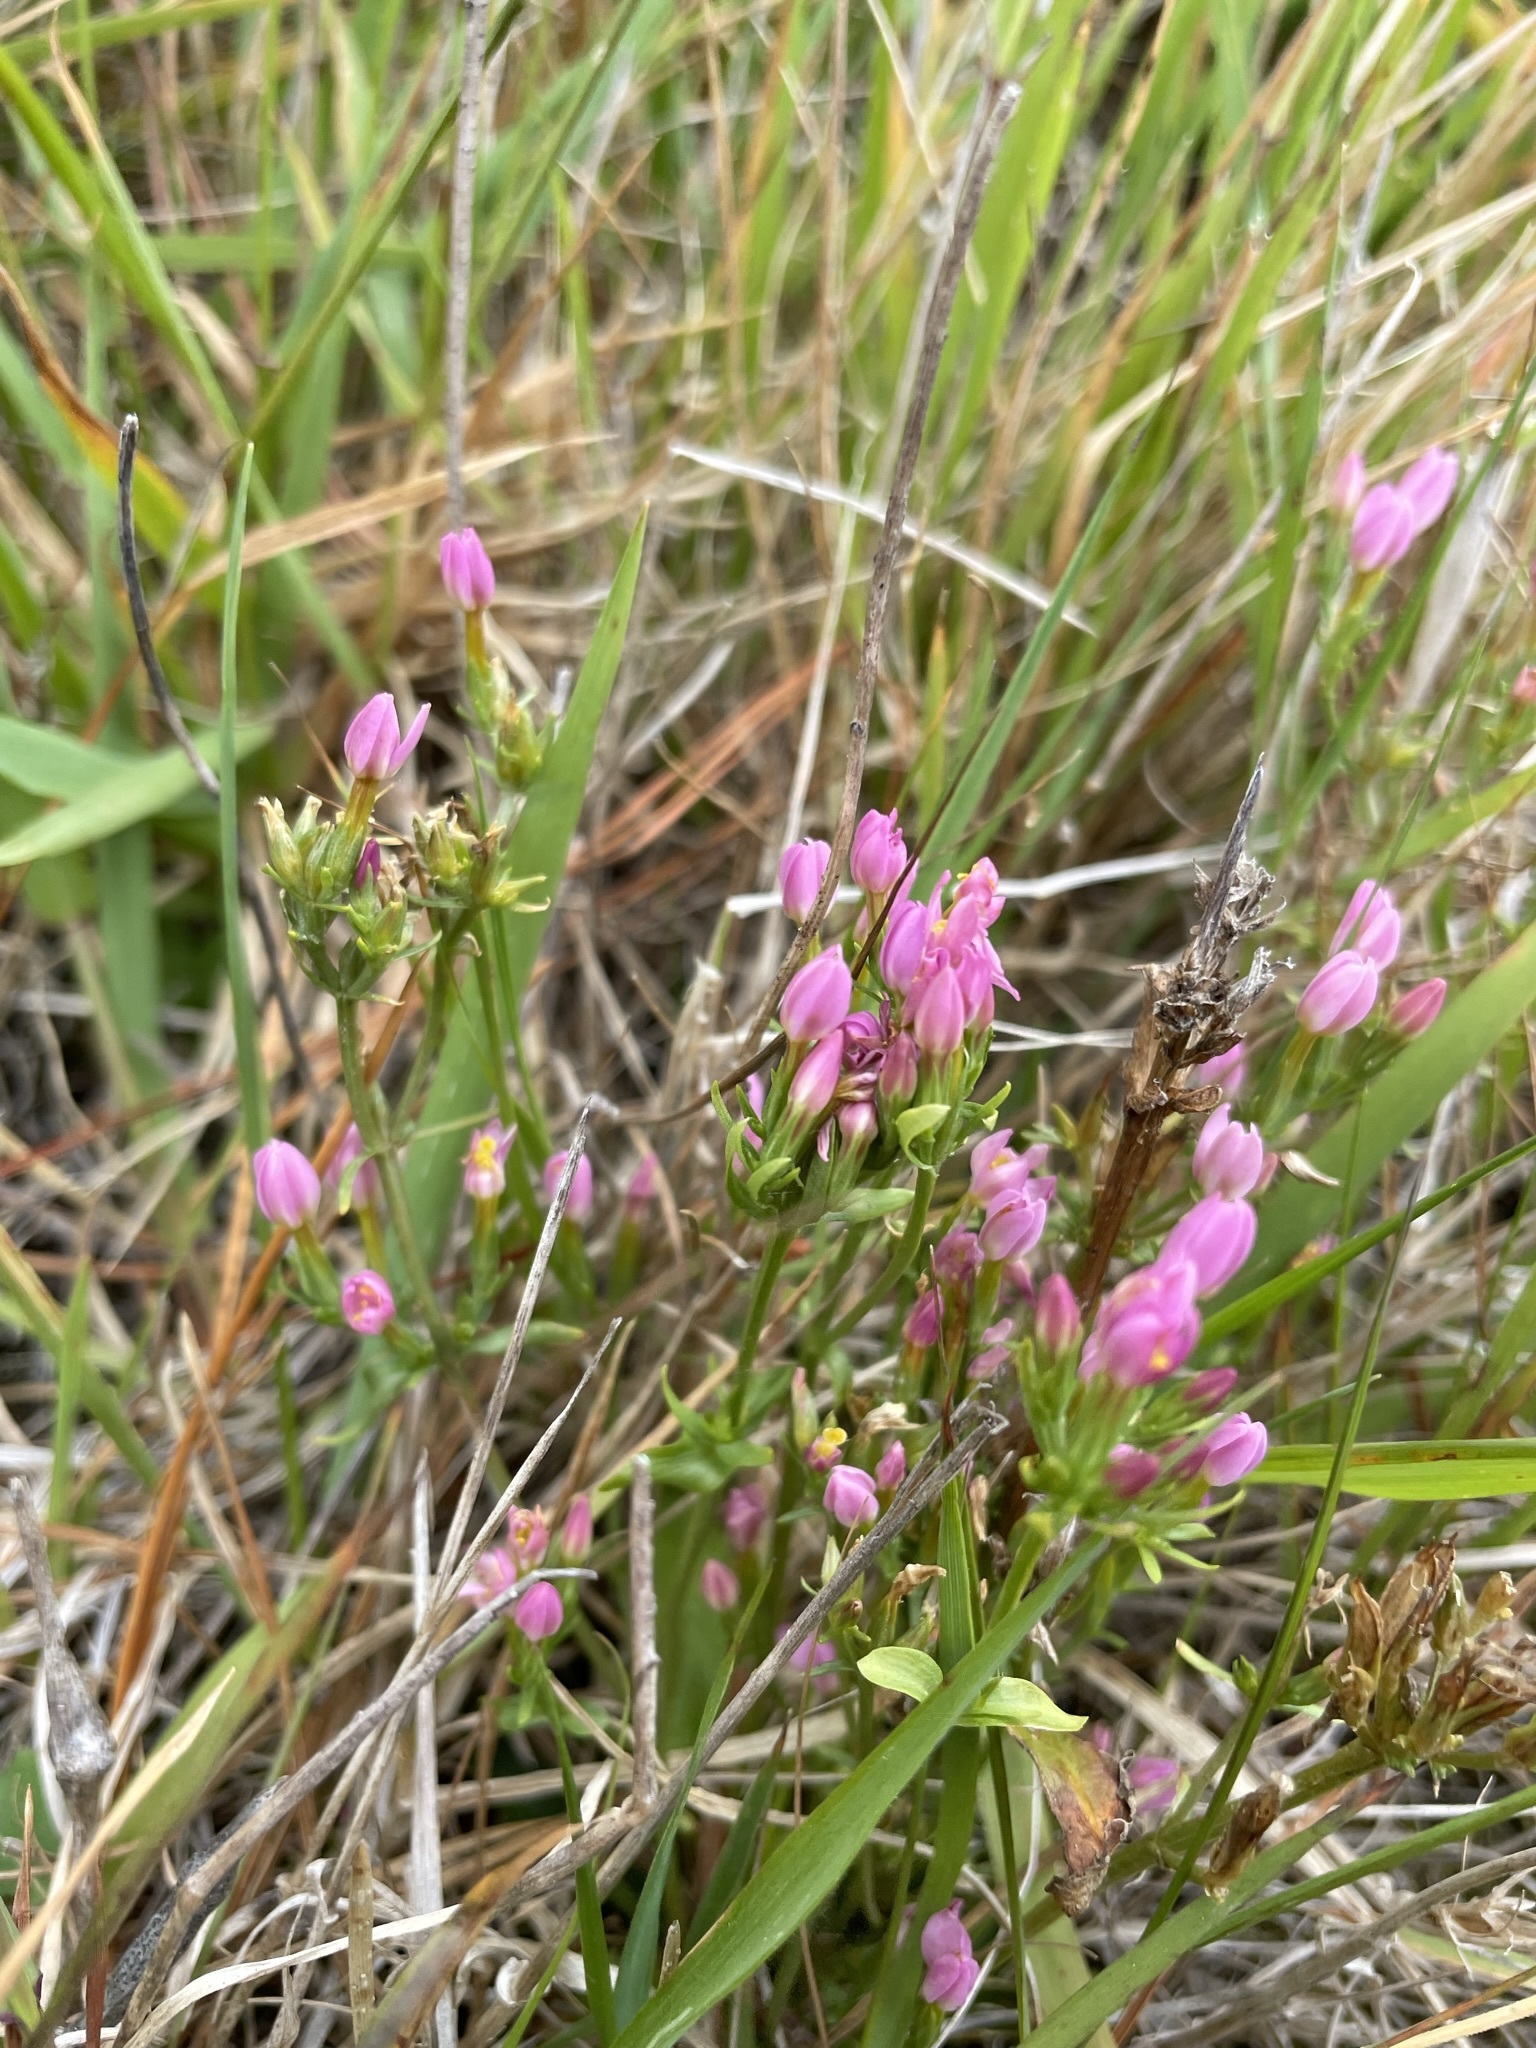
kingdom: Plantae
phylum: Tracheophyta
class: Magnoliopsida
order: Gentianales
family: Gentianaceae
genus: Centaurium
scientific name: Centaurium erythraea
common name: Common centaury
